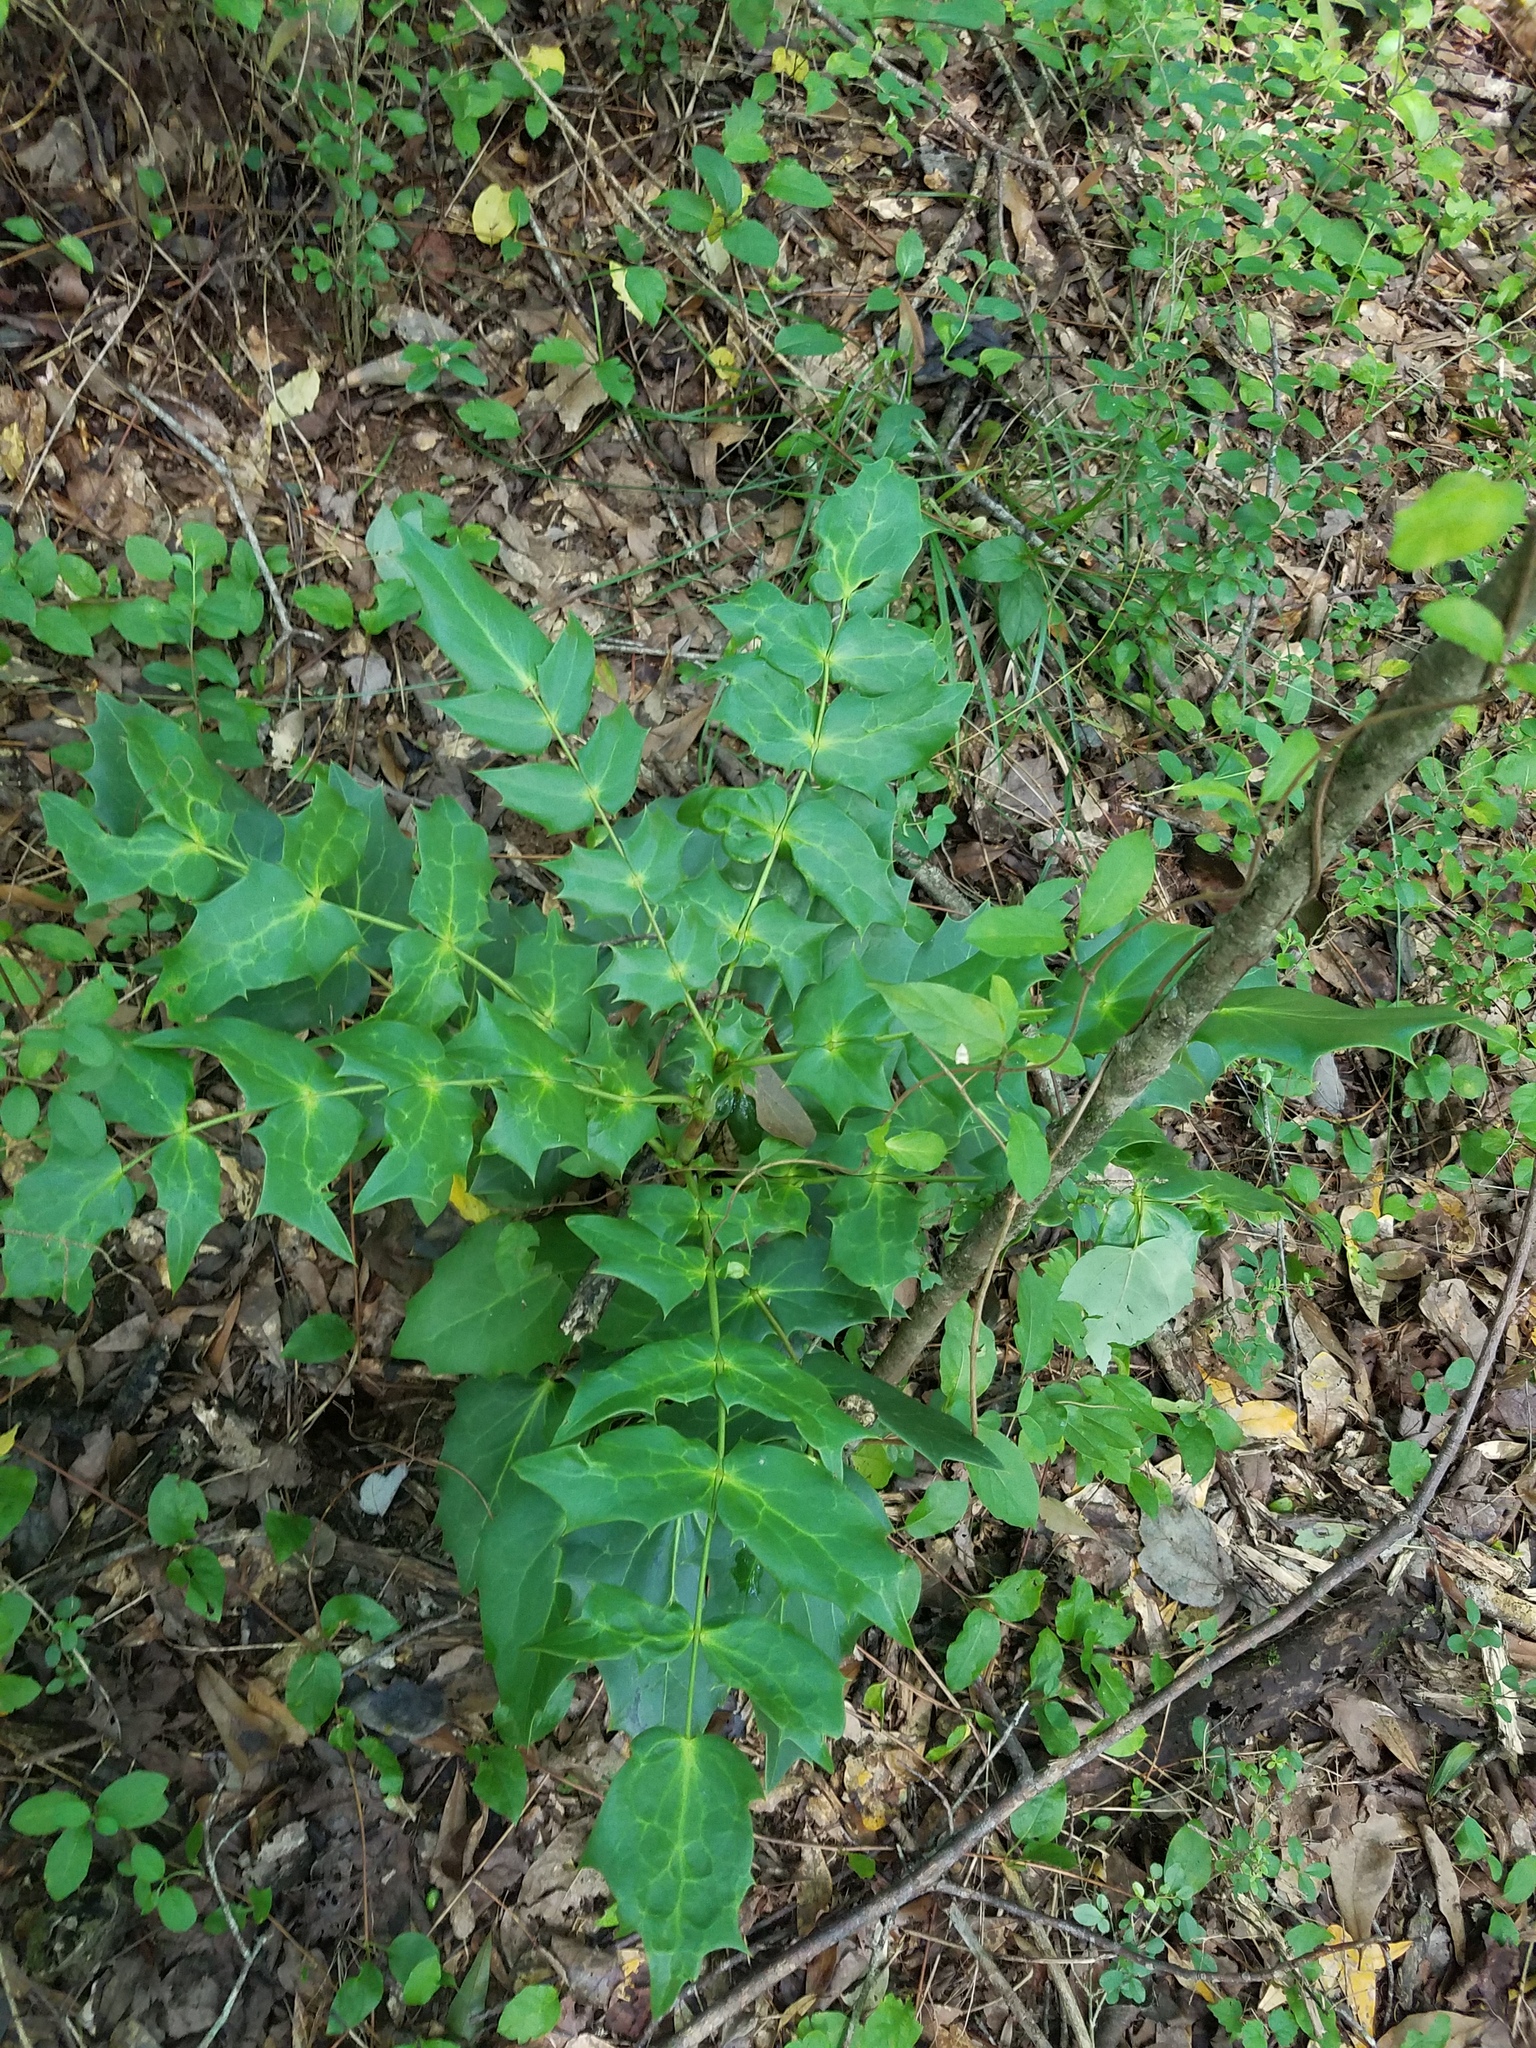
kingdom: Plantae
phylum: Tracheophyta
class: Magnoliopsida
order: Ranunculales
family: Berberidaceae
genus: Mahonia
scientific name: Mahonia bealei
